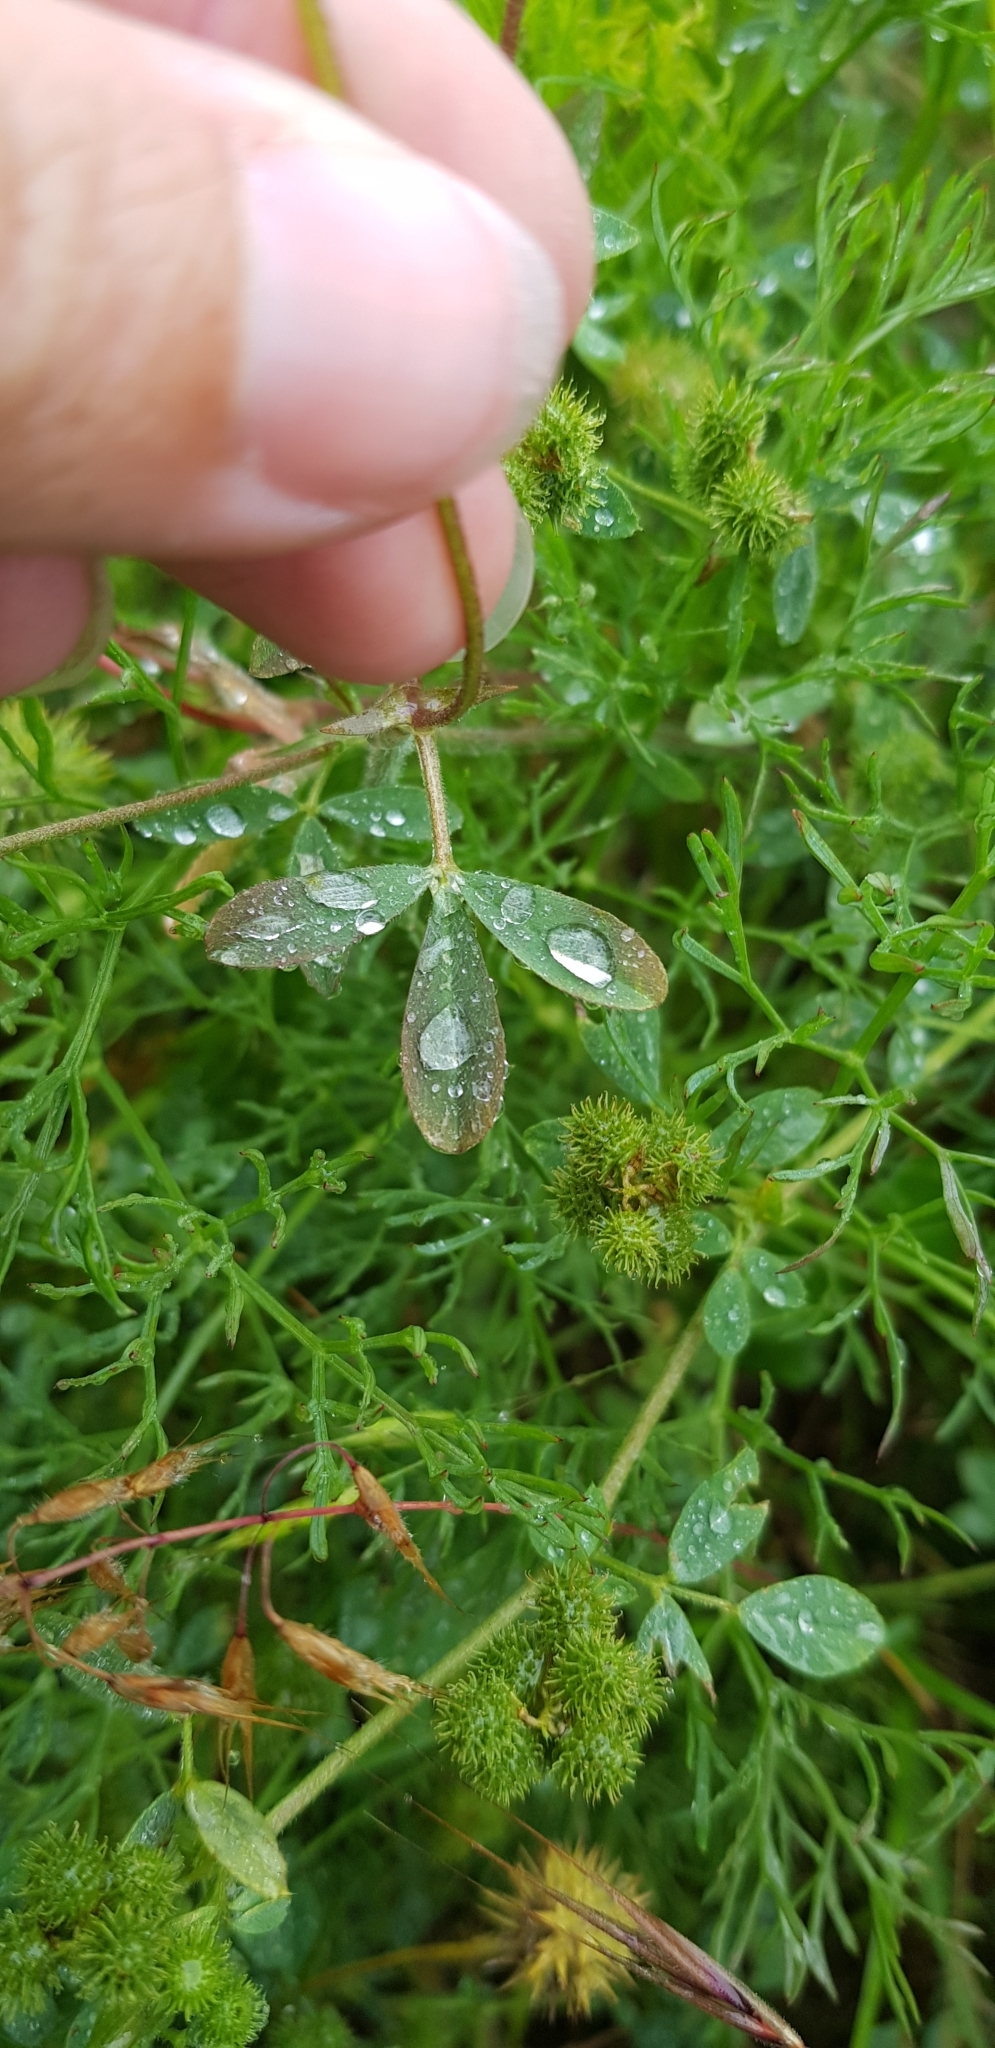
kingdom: Plantae
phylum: Tracheophyta
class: Magnoliopsida
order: Fabales
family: Fabaceae
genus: Trifolium
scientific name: Trifolium lappaceum
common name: Bur clover
